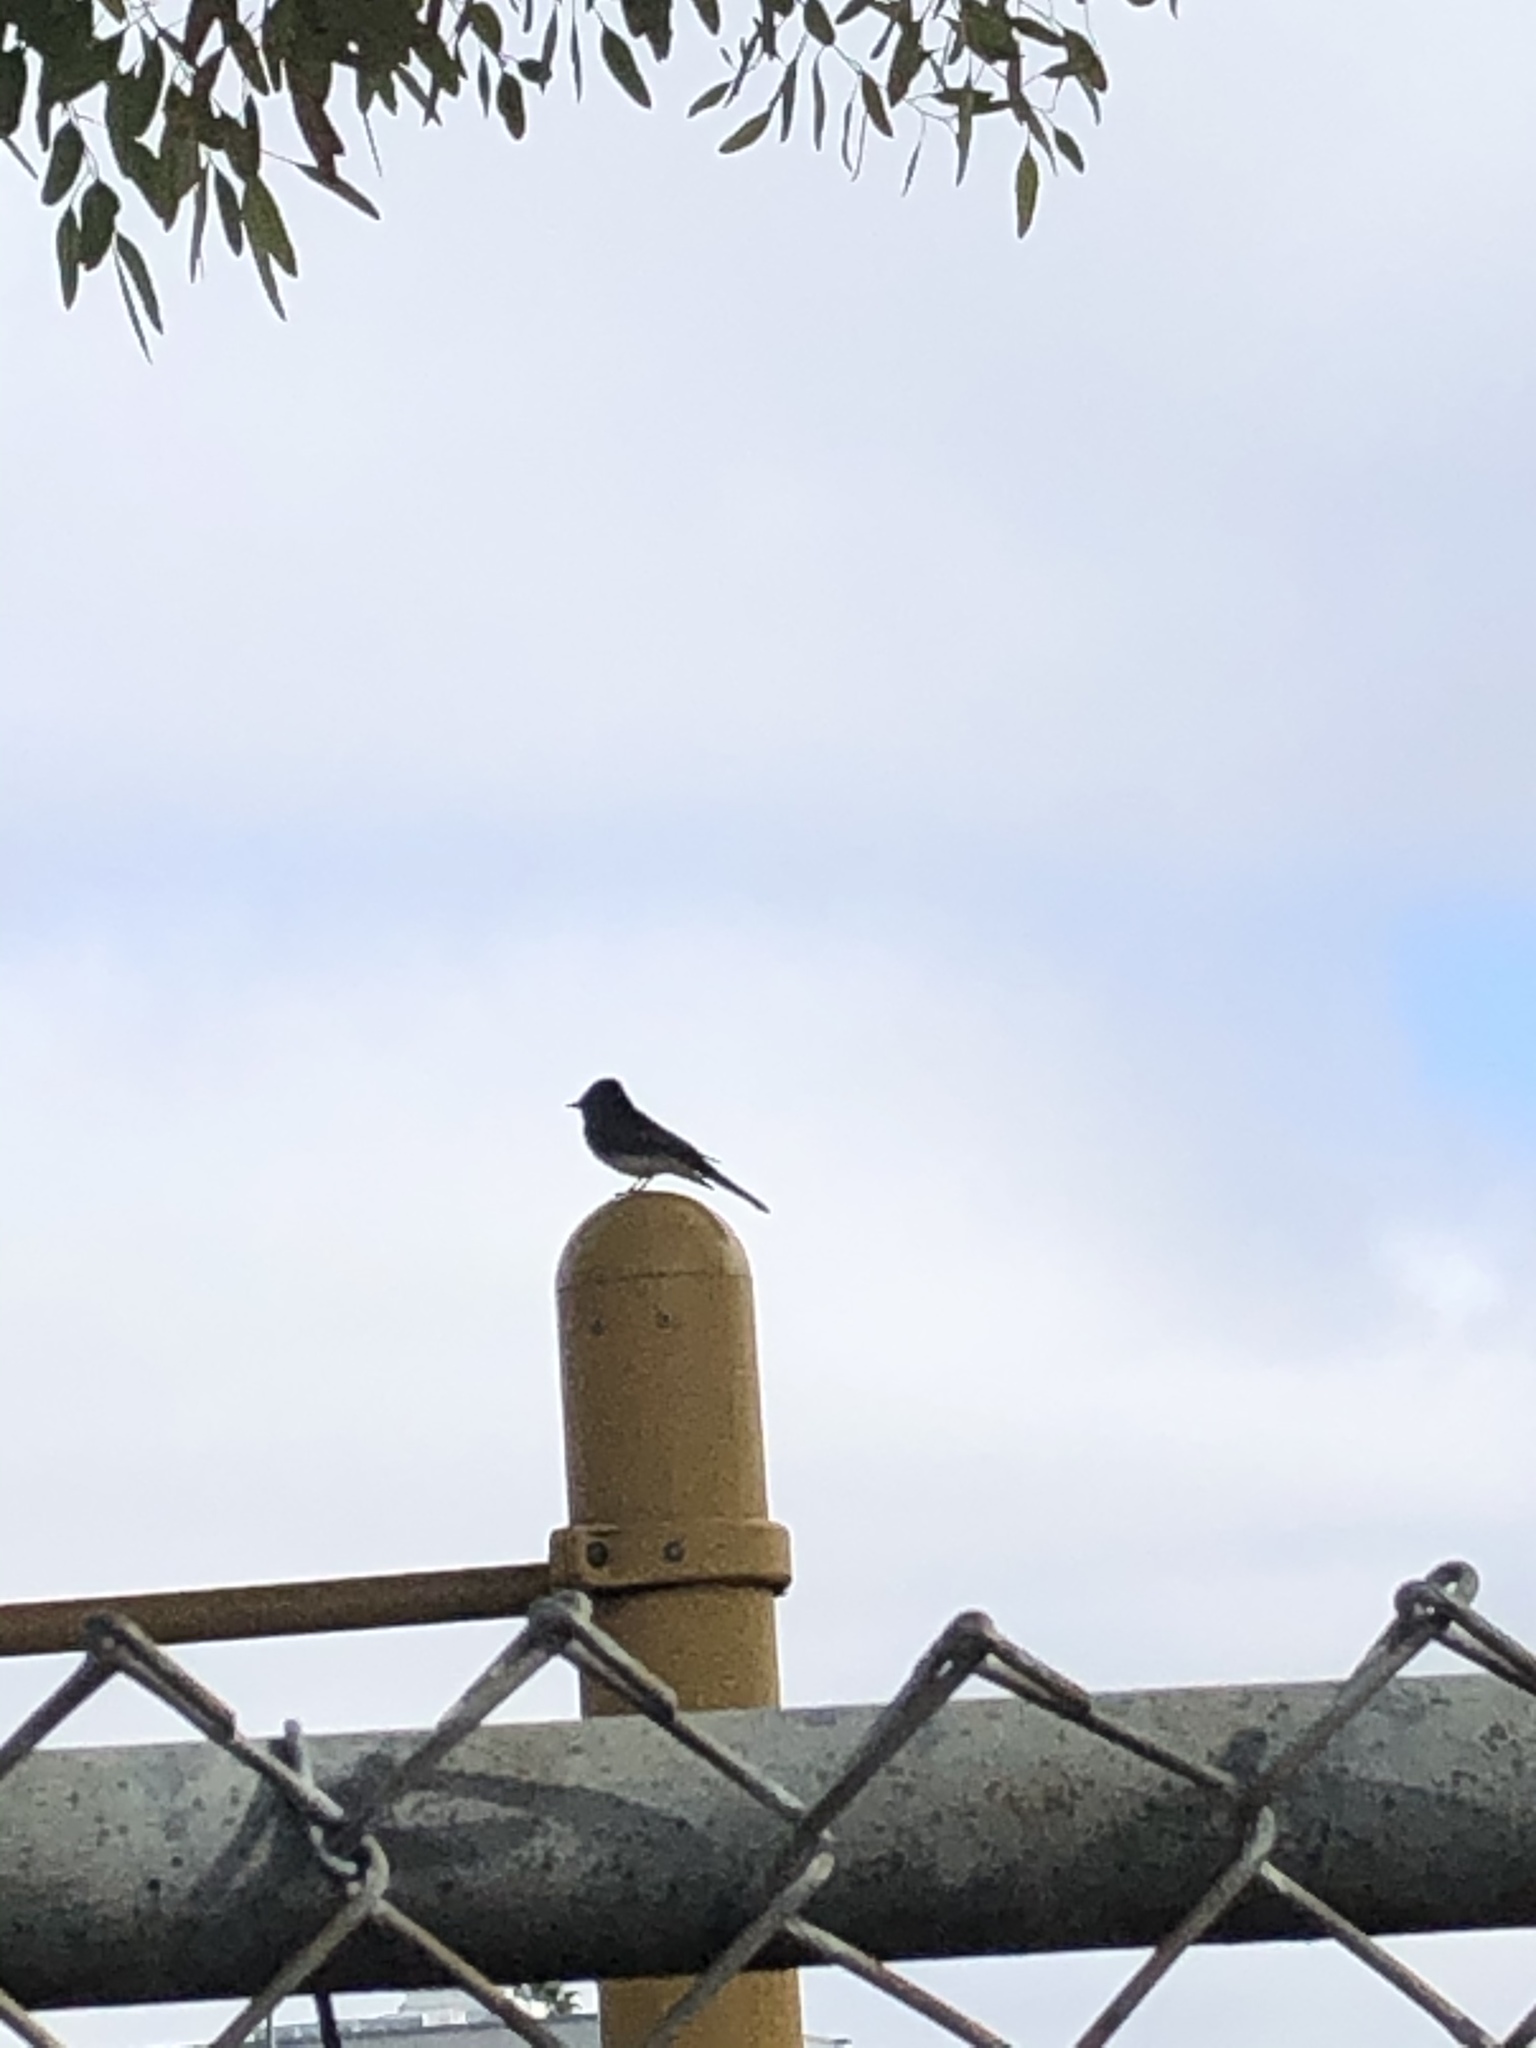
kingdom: Animalia
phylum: Chordata
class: Aves
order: Passeriformes
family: Tyrannidae
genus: Sayornis
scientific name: Sayornis nigricans
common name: Black phoebe
